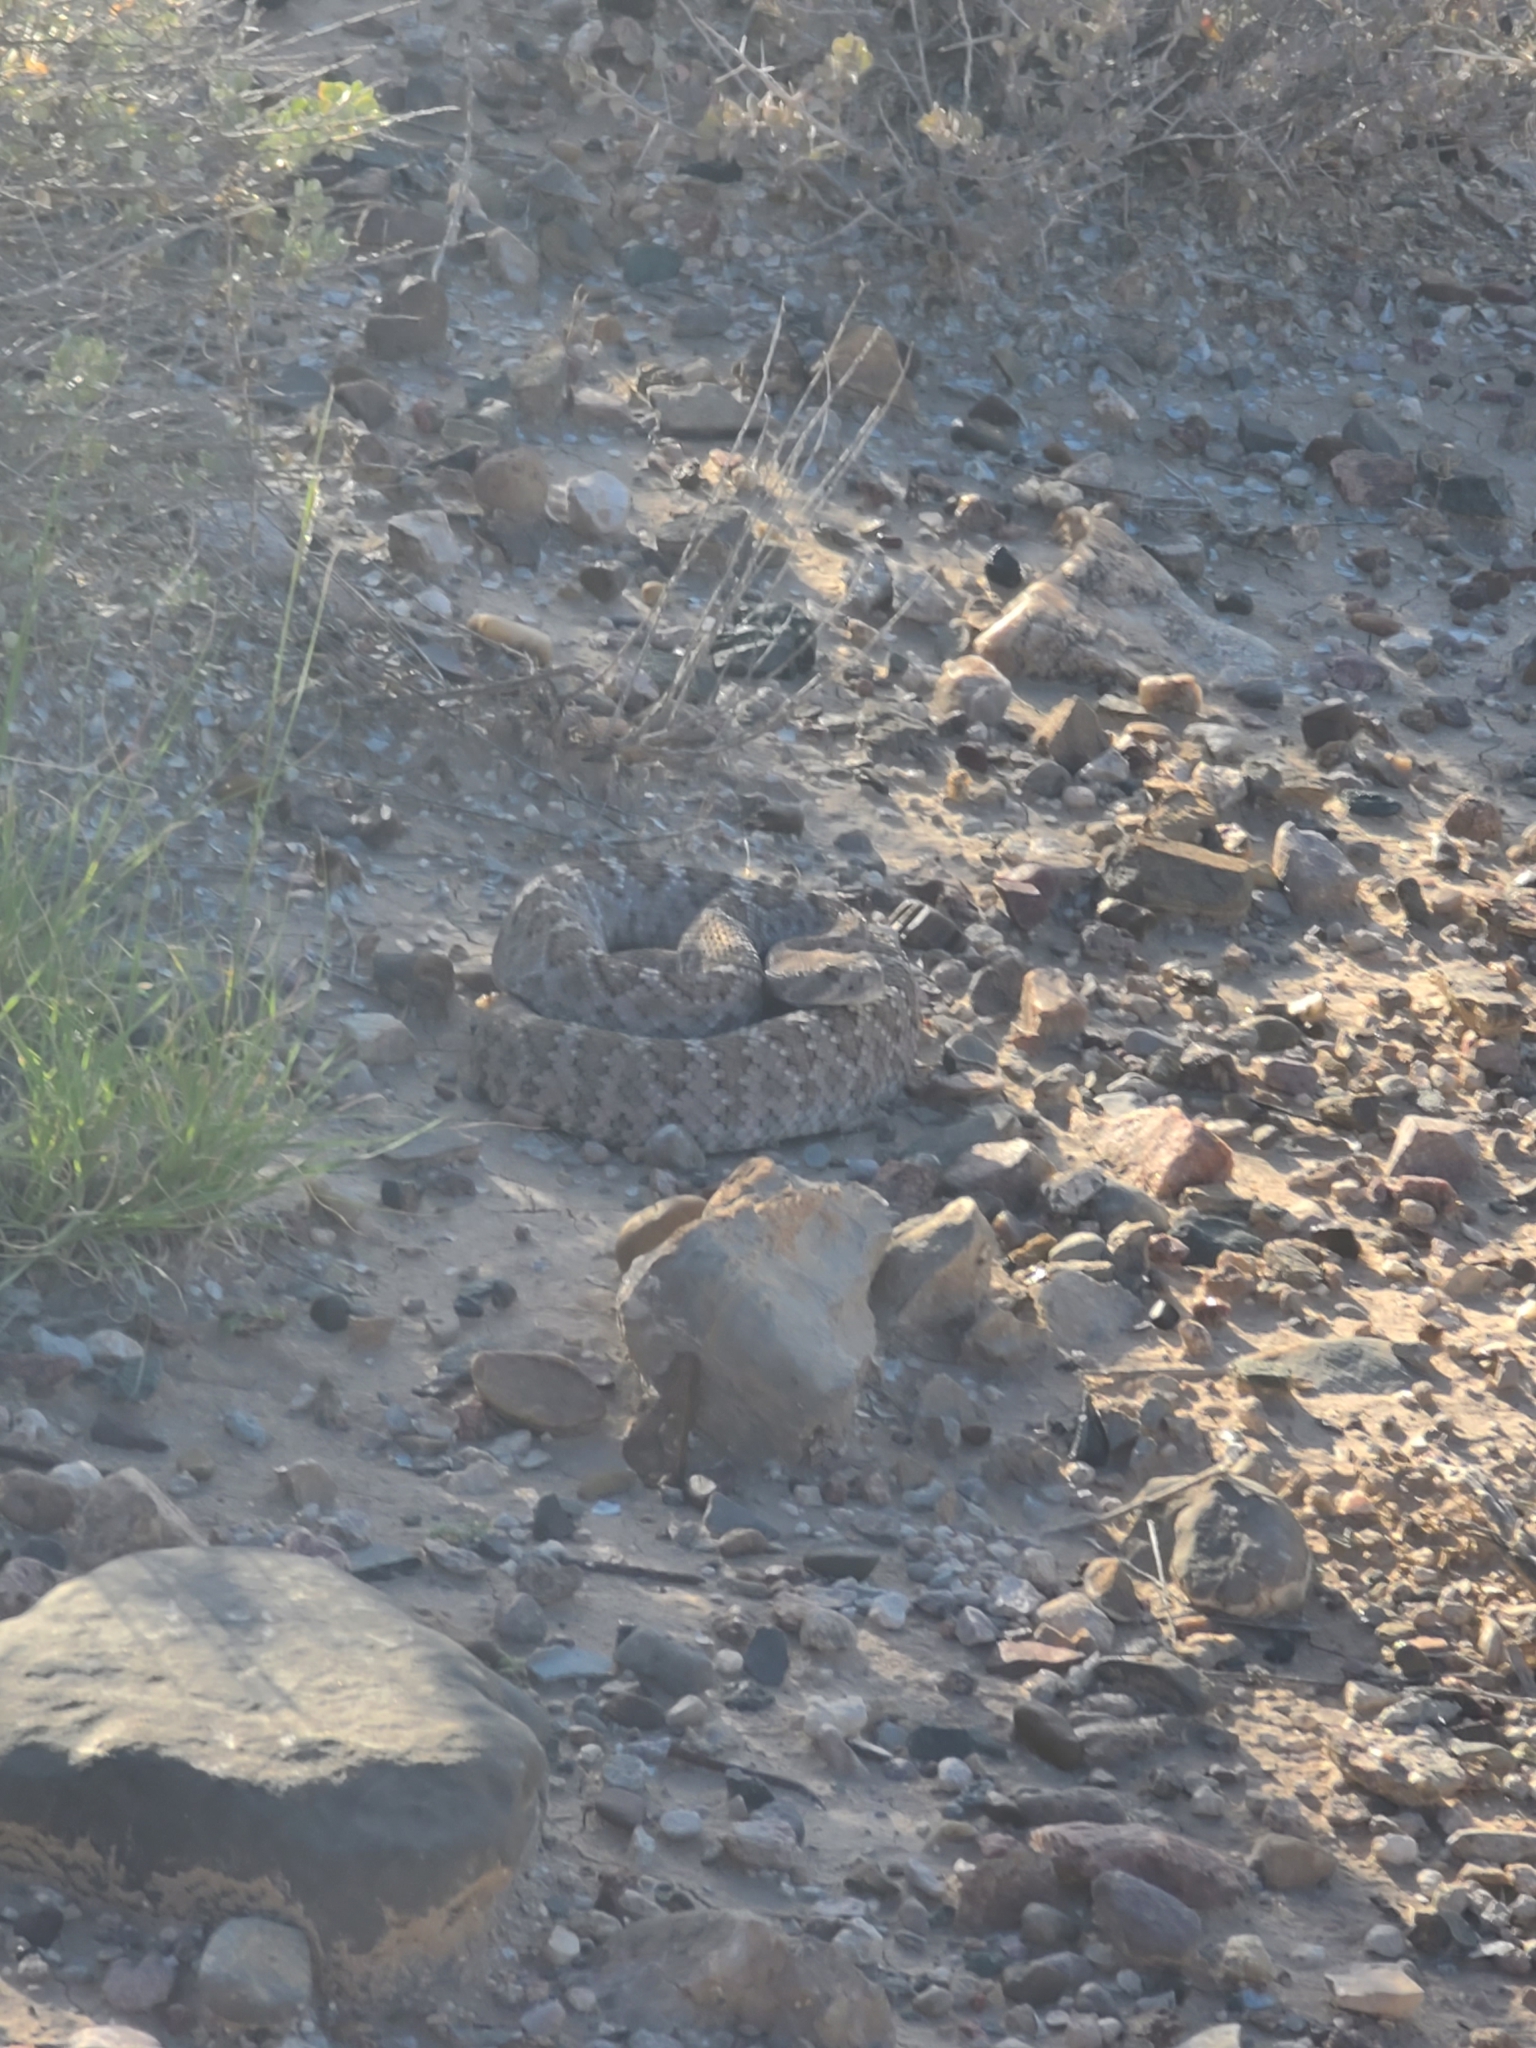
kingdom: Animalia
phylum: Chordata
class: Squamata
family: Viperidae
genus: Crotalus
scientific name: Crotalus atrox
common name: Western diamond-backed rattlesnake
